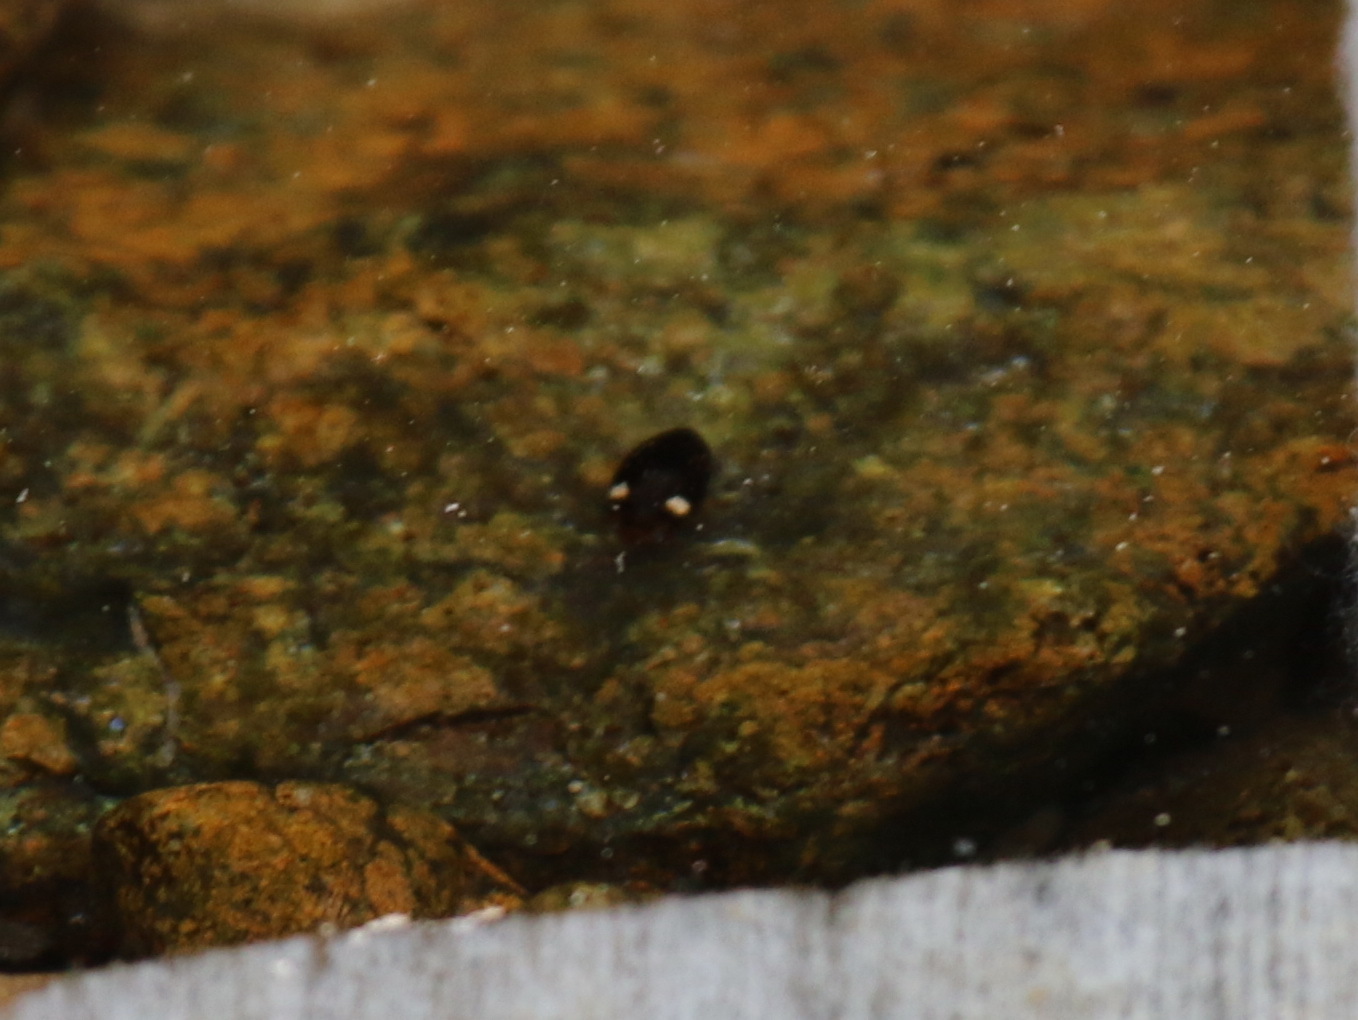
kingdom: Animalia
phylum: Arthropoda
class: Insecta
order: Coleoptera
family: Dytiscidae
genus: Laccophilus
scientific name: Laccophilus maindroni
